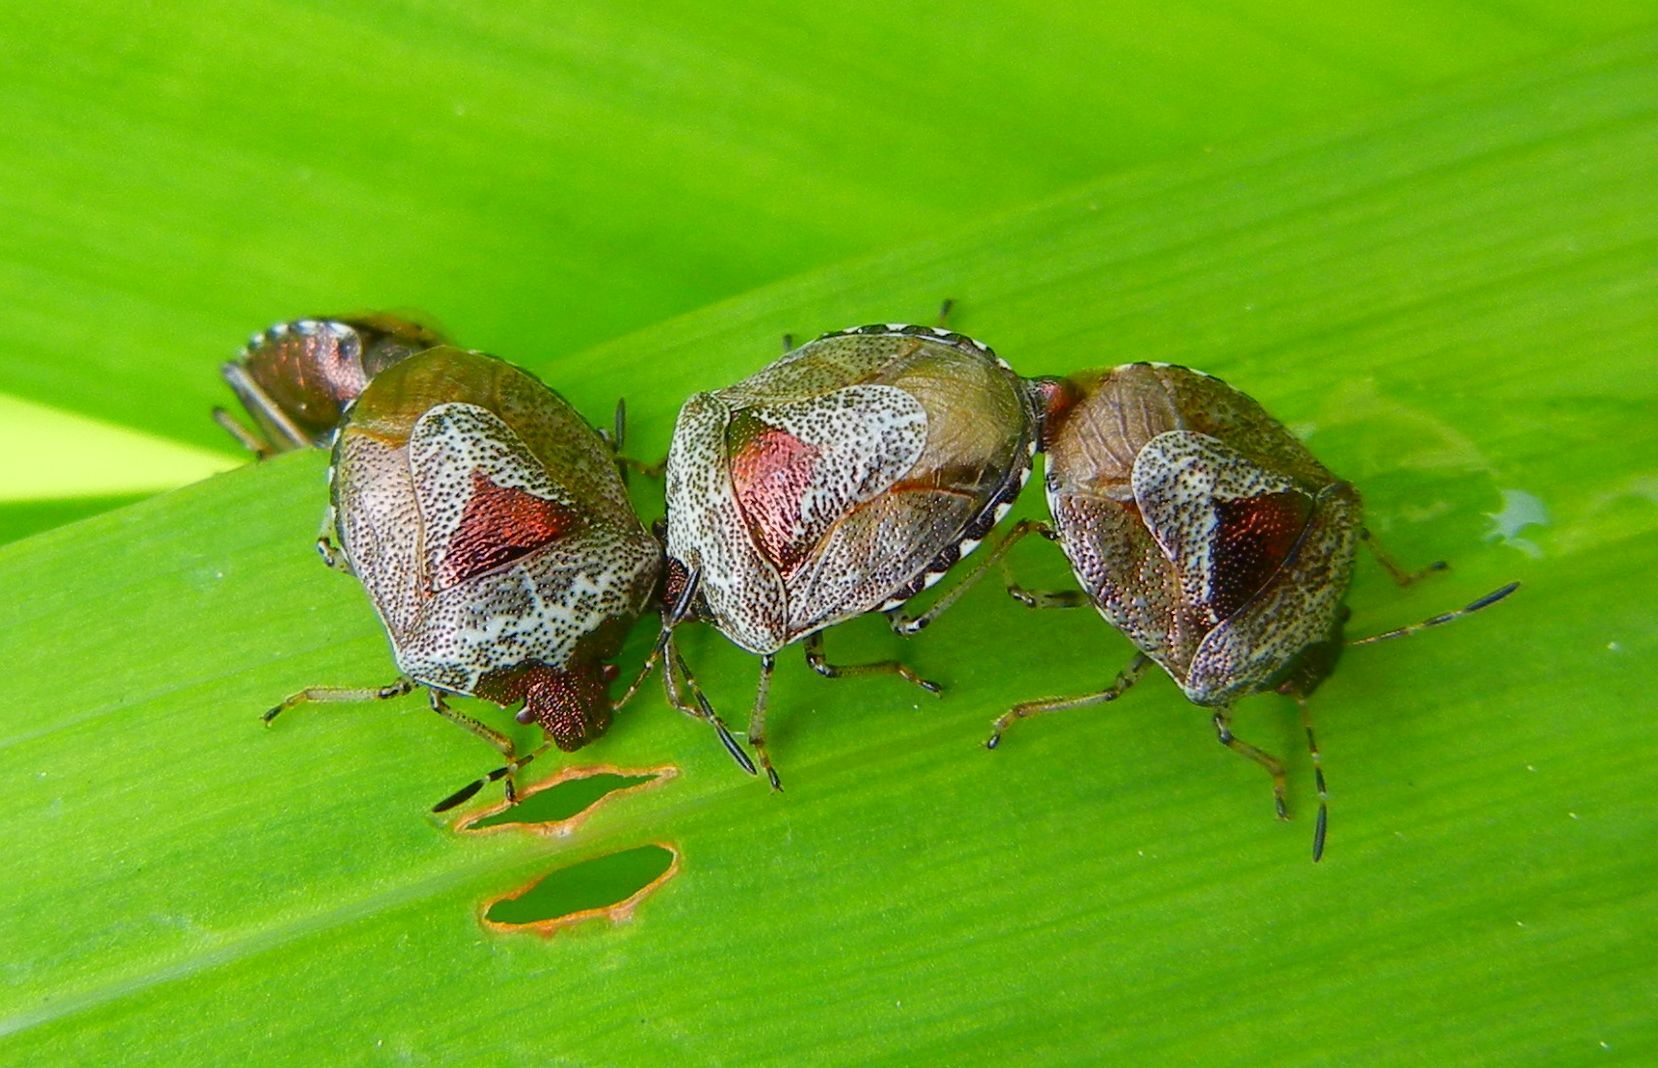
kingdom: Animalia
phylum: Arthropoda
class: Insecta
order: Hemiptera
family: Pentatomidae
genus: Eysarcoris
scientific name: Eysarcoris venustissimus
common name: Woundwort shieldbug
